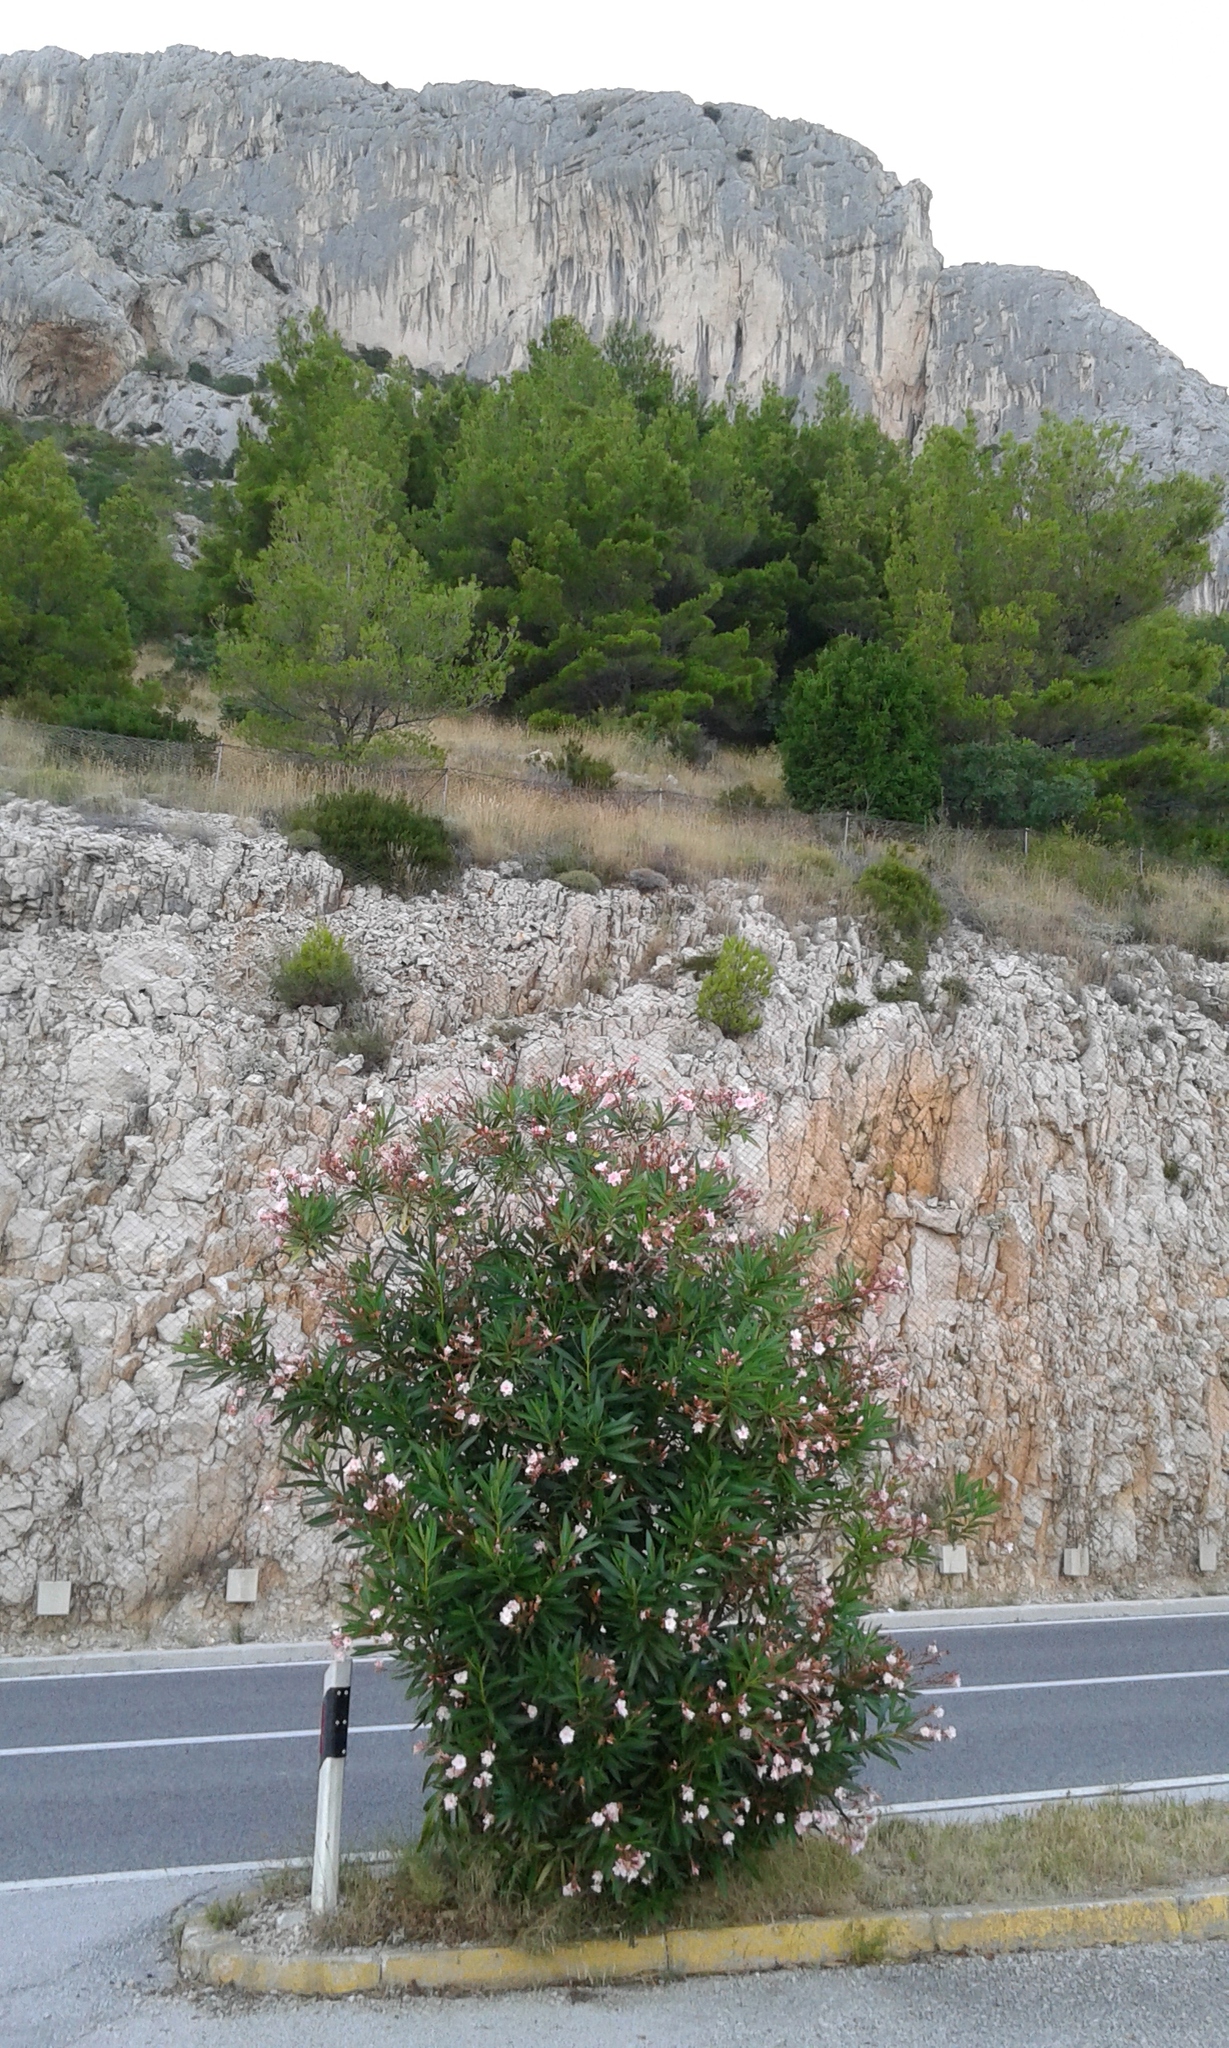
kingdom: Plantae
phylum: Tracheophyta
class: Magnoliopsida
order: Gentianales
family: Apocynaceae
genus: Nerium
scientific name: Nerium oleander
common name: Oleander
